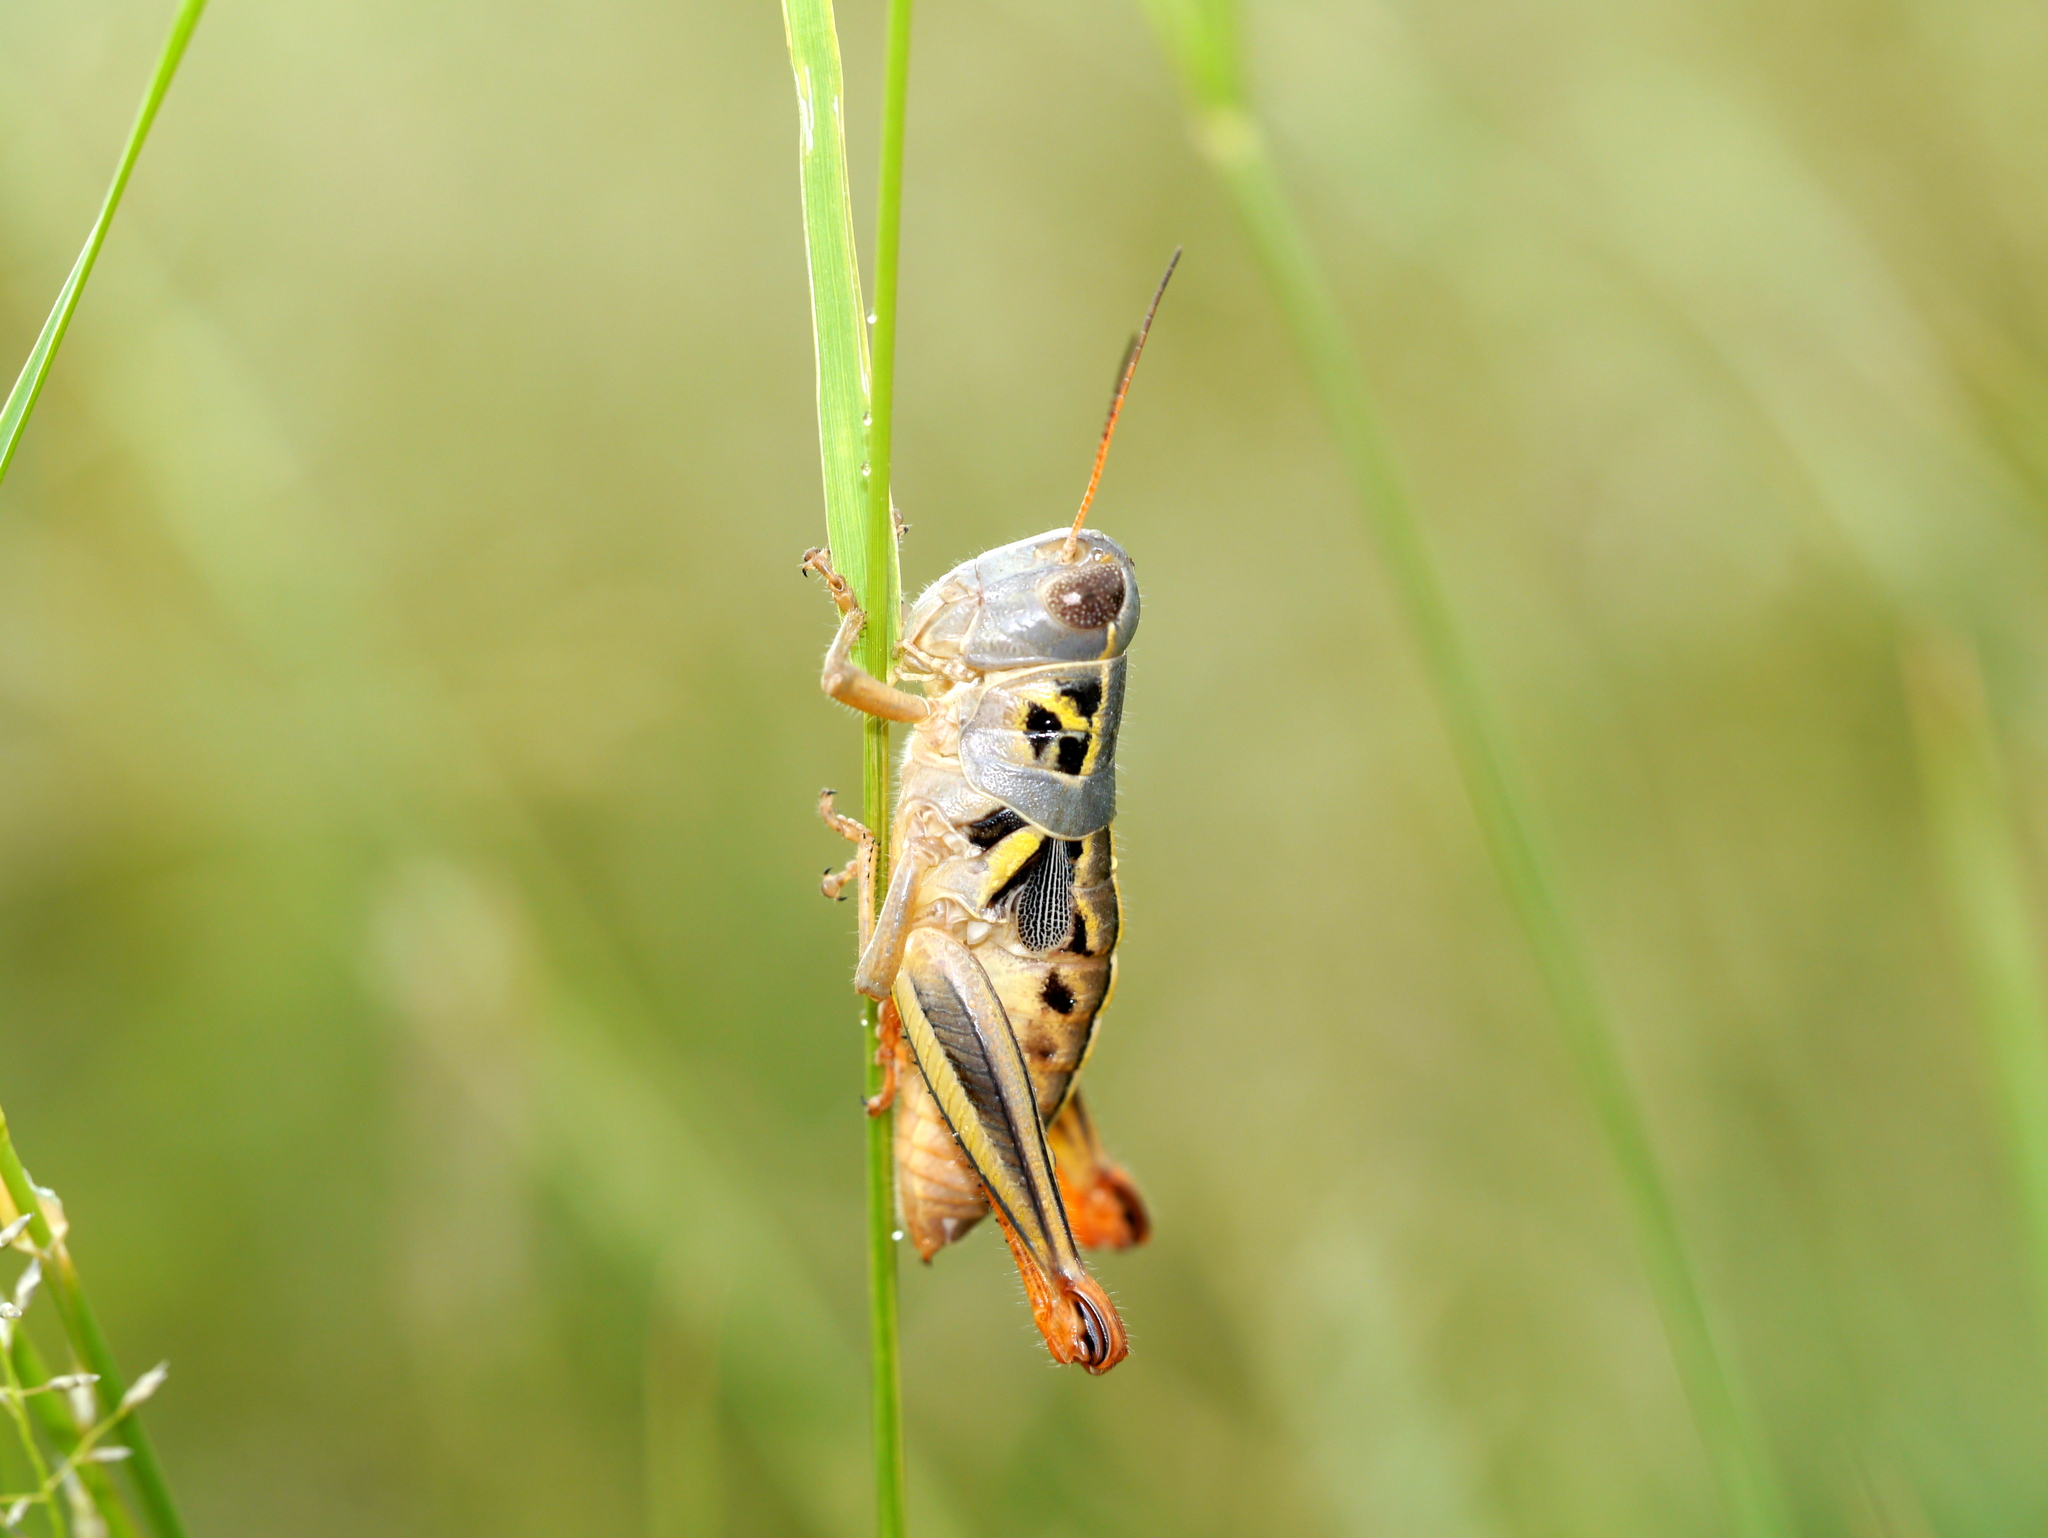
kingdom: Animalia
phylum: Arthropoda
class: Insecta
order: Orthoptera
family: Acrididae
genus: Barytettix
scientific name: Barytettix humphreysii
